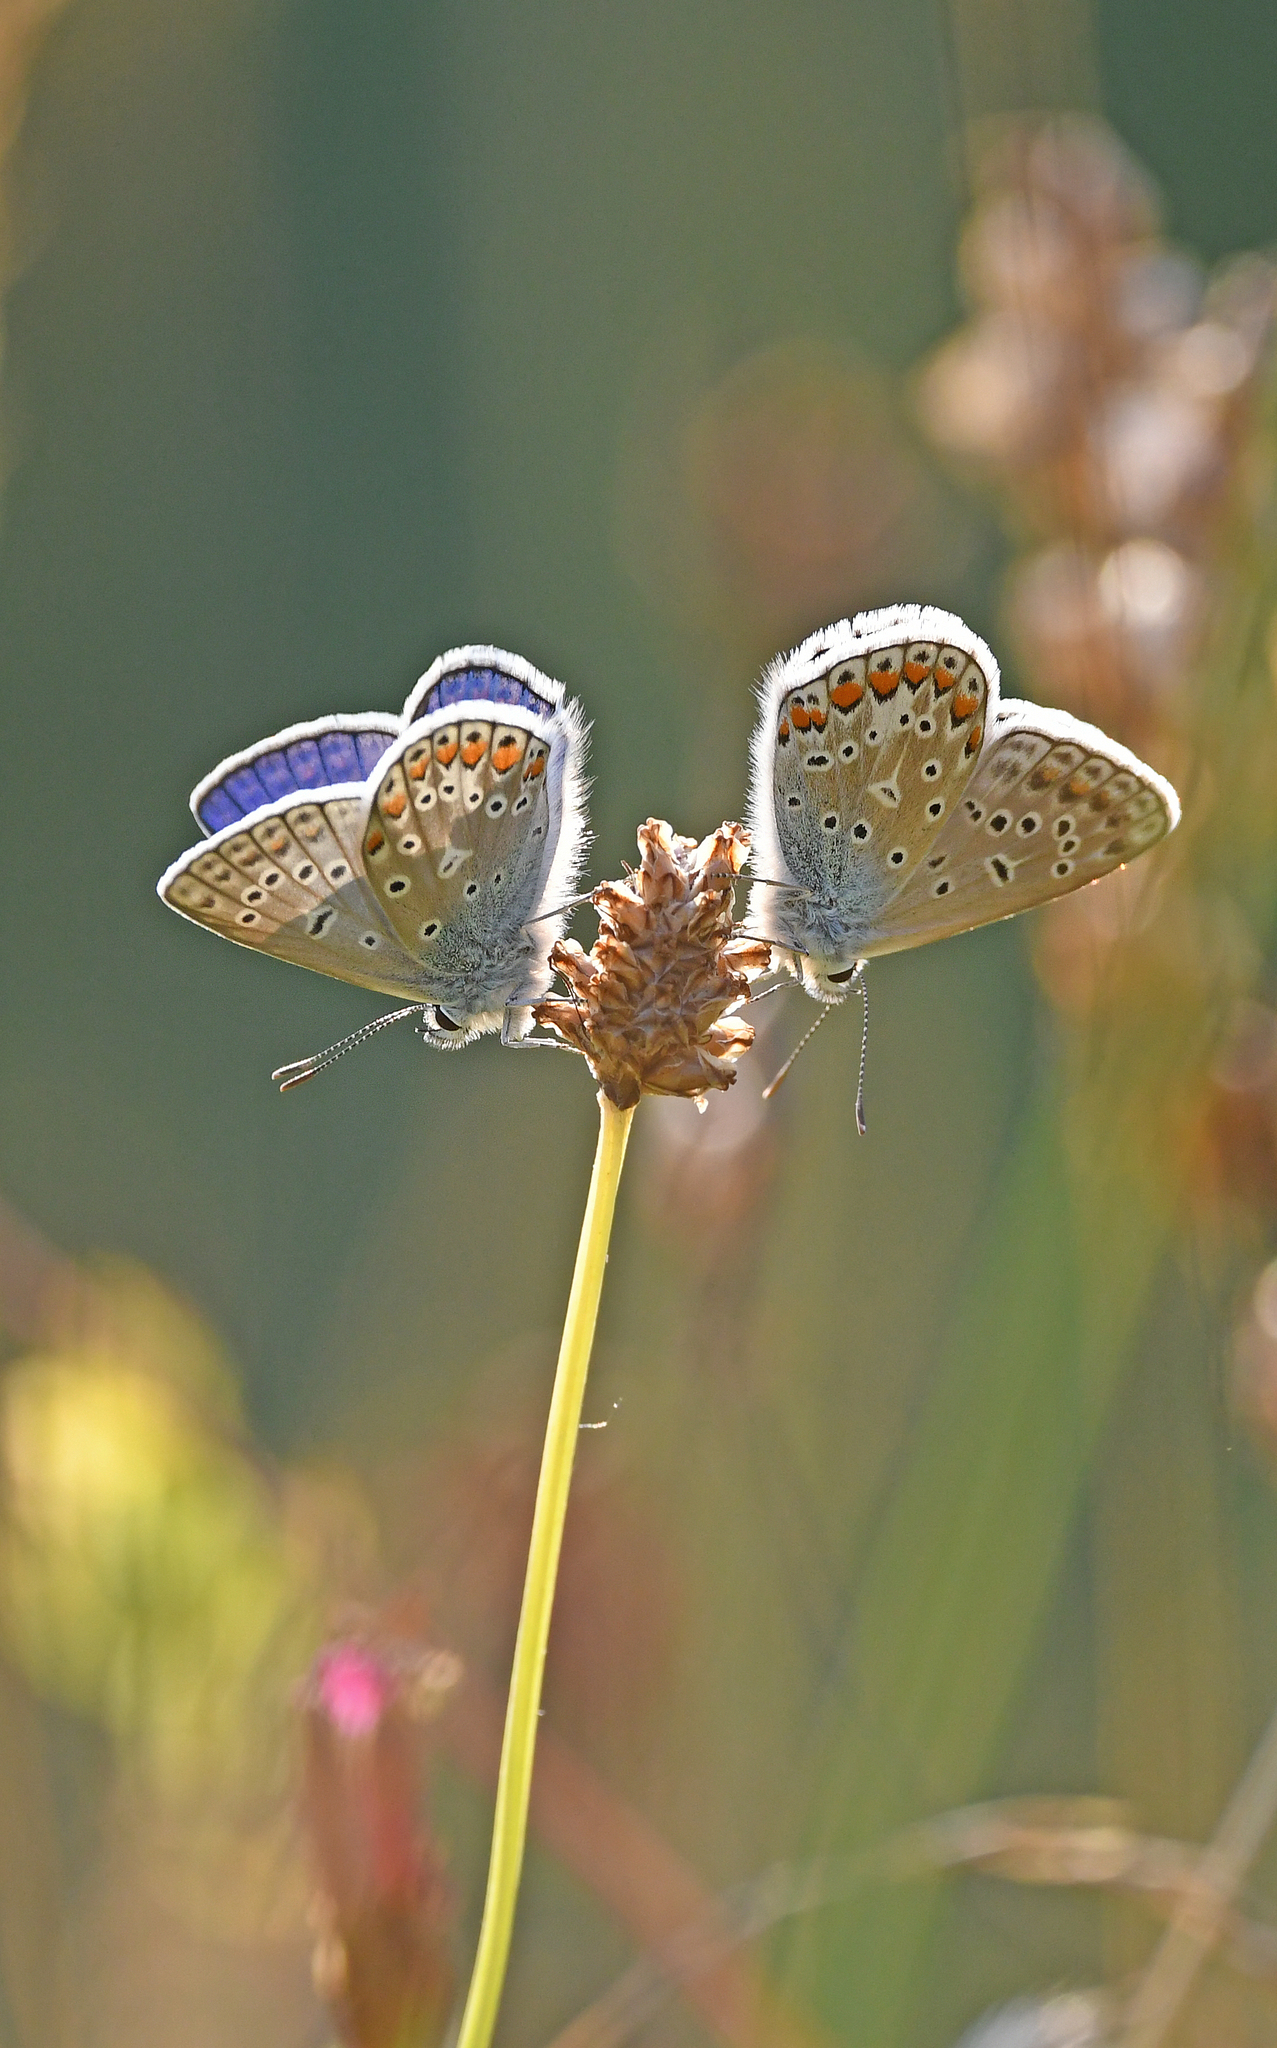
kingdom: Animalia
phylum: Arthropoda
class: Insecta
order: Lepidoptera
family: Lycaenidae
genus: Polyommatus
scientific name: Polyommatus icarus
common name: Common blue
